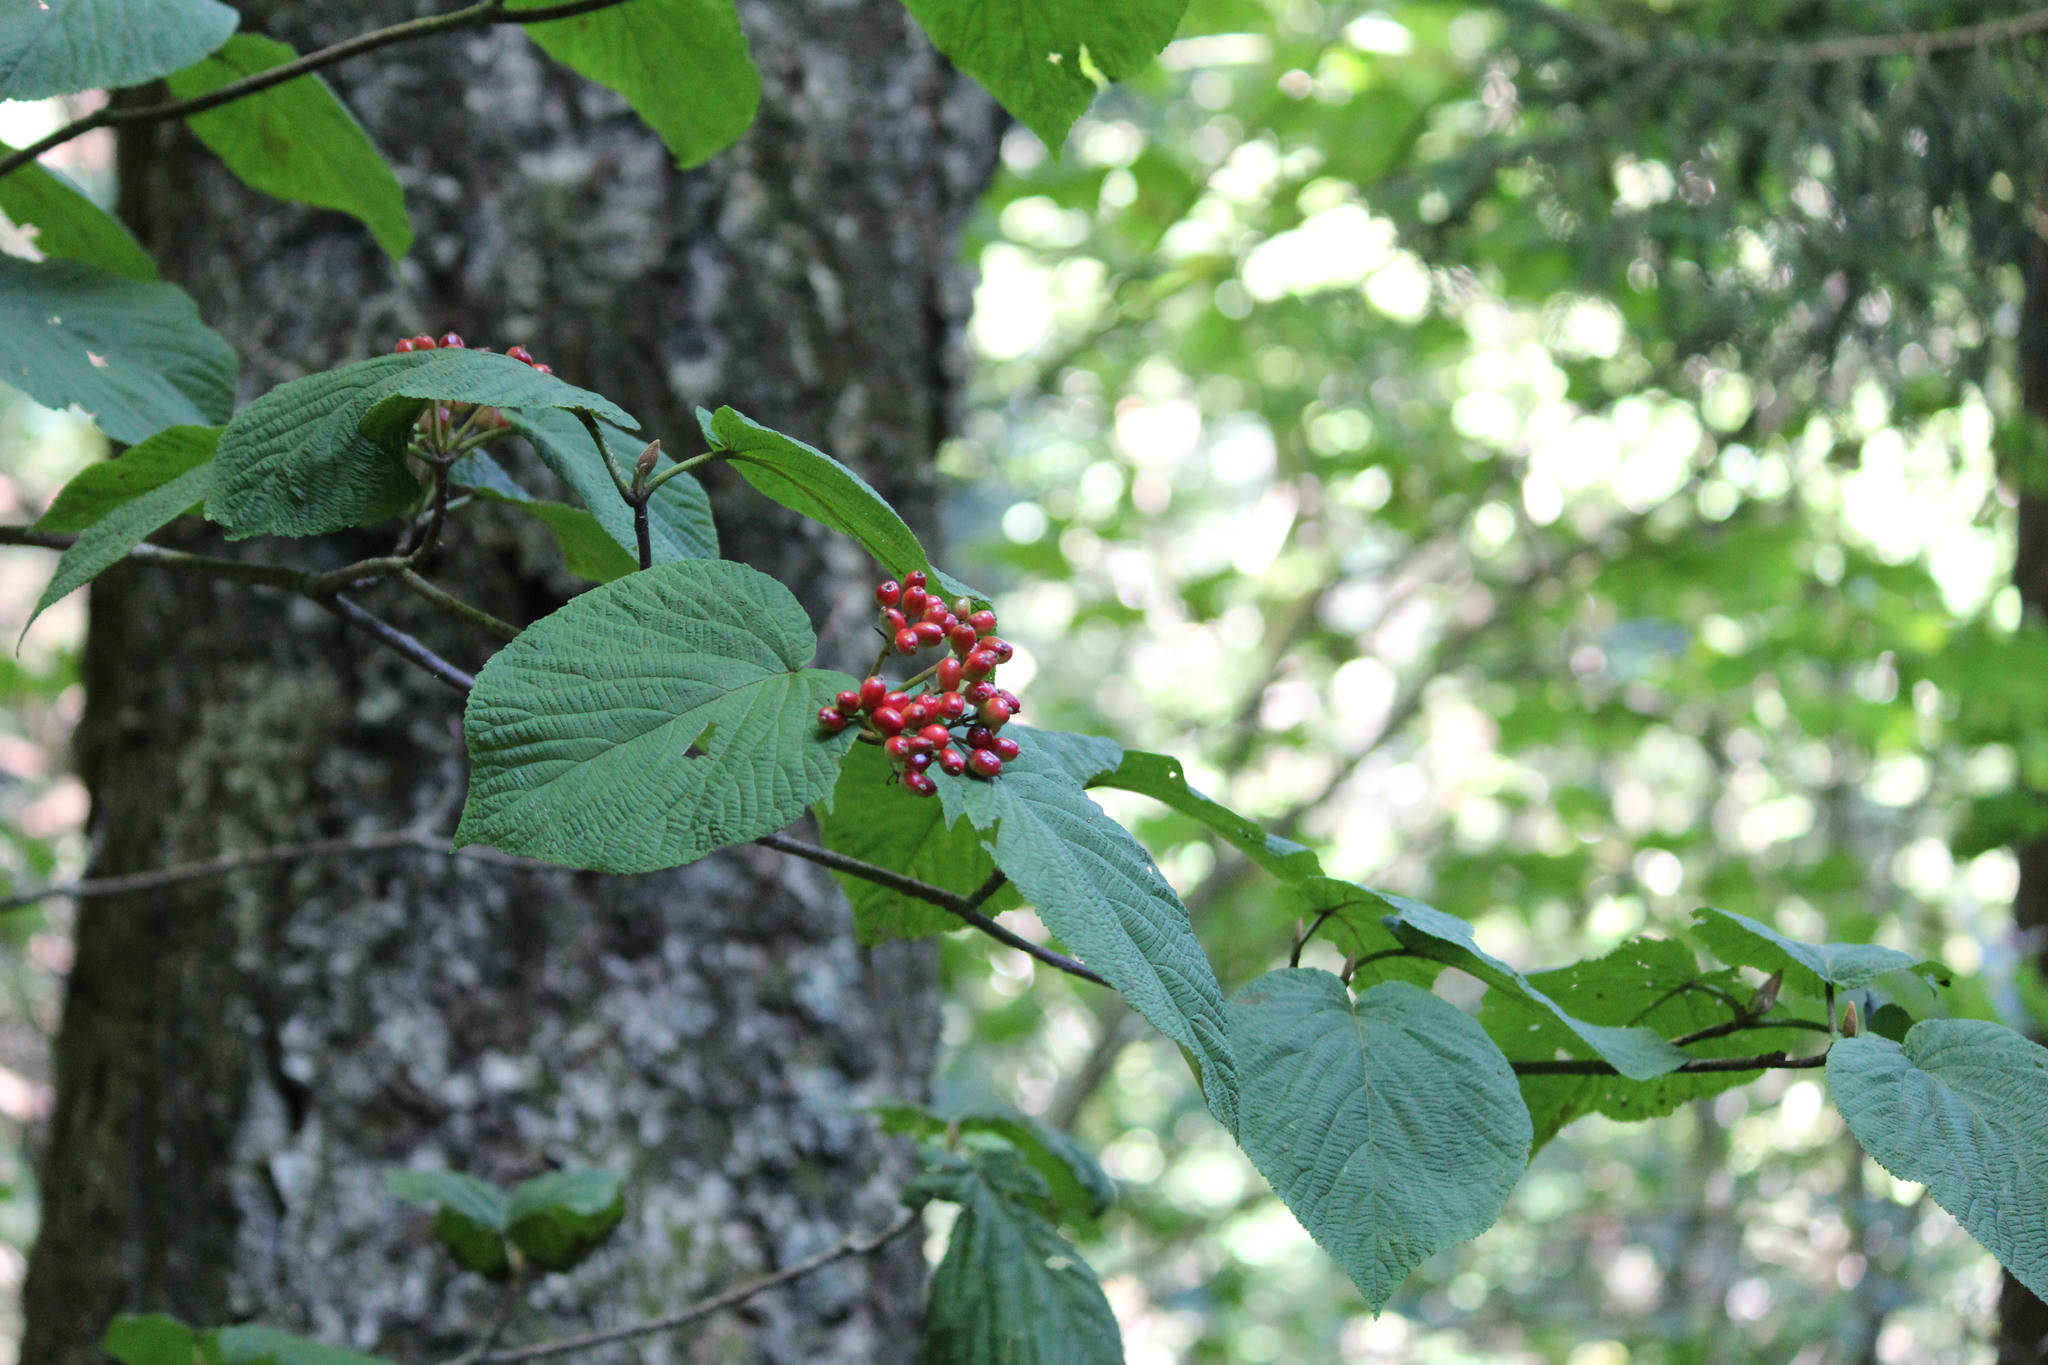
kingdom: Plantae
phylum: Tracheophyta
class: Magnoliopsida
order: Dipsacales
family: Viburnaceae
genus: Viburnum
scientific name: Viburnum lantanoides
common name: Hobblebush
